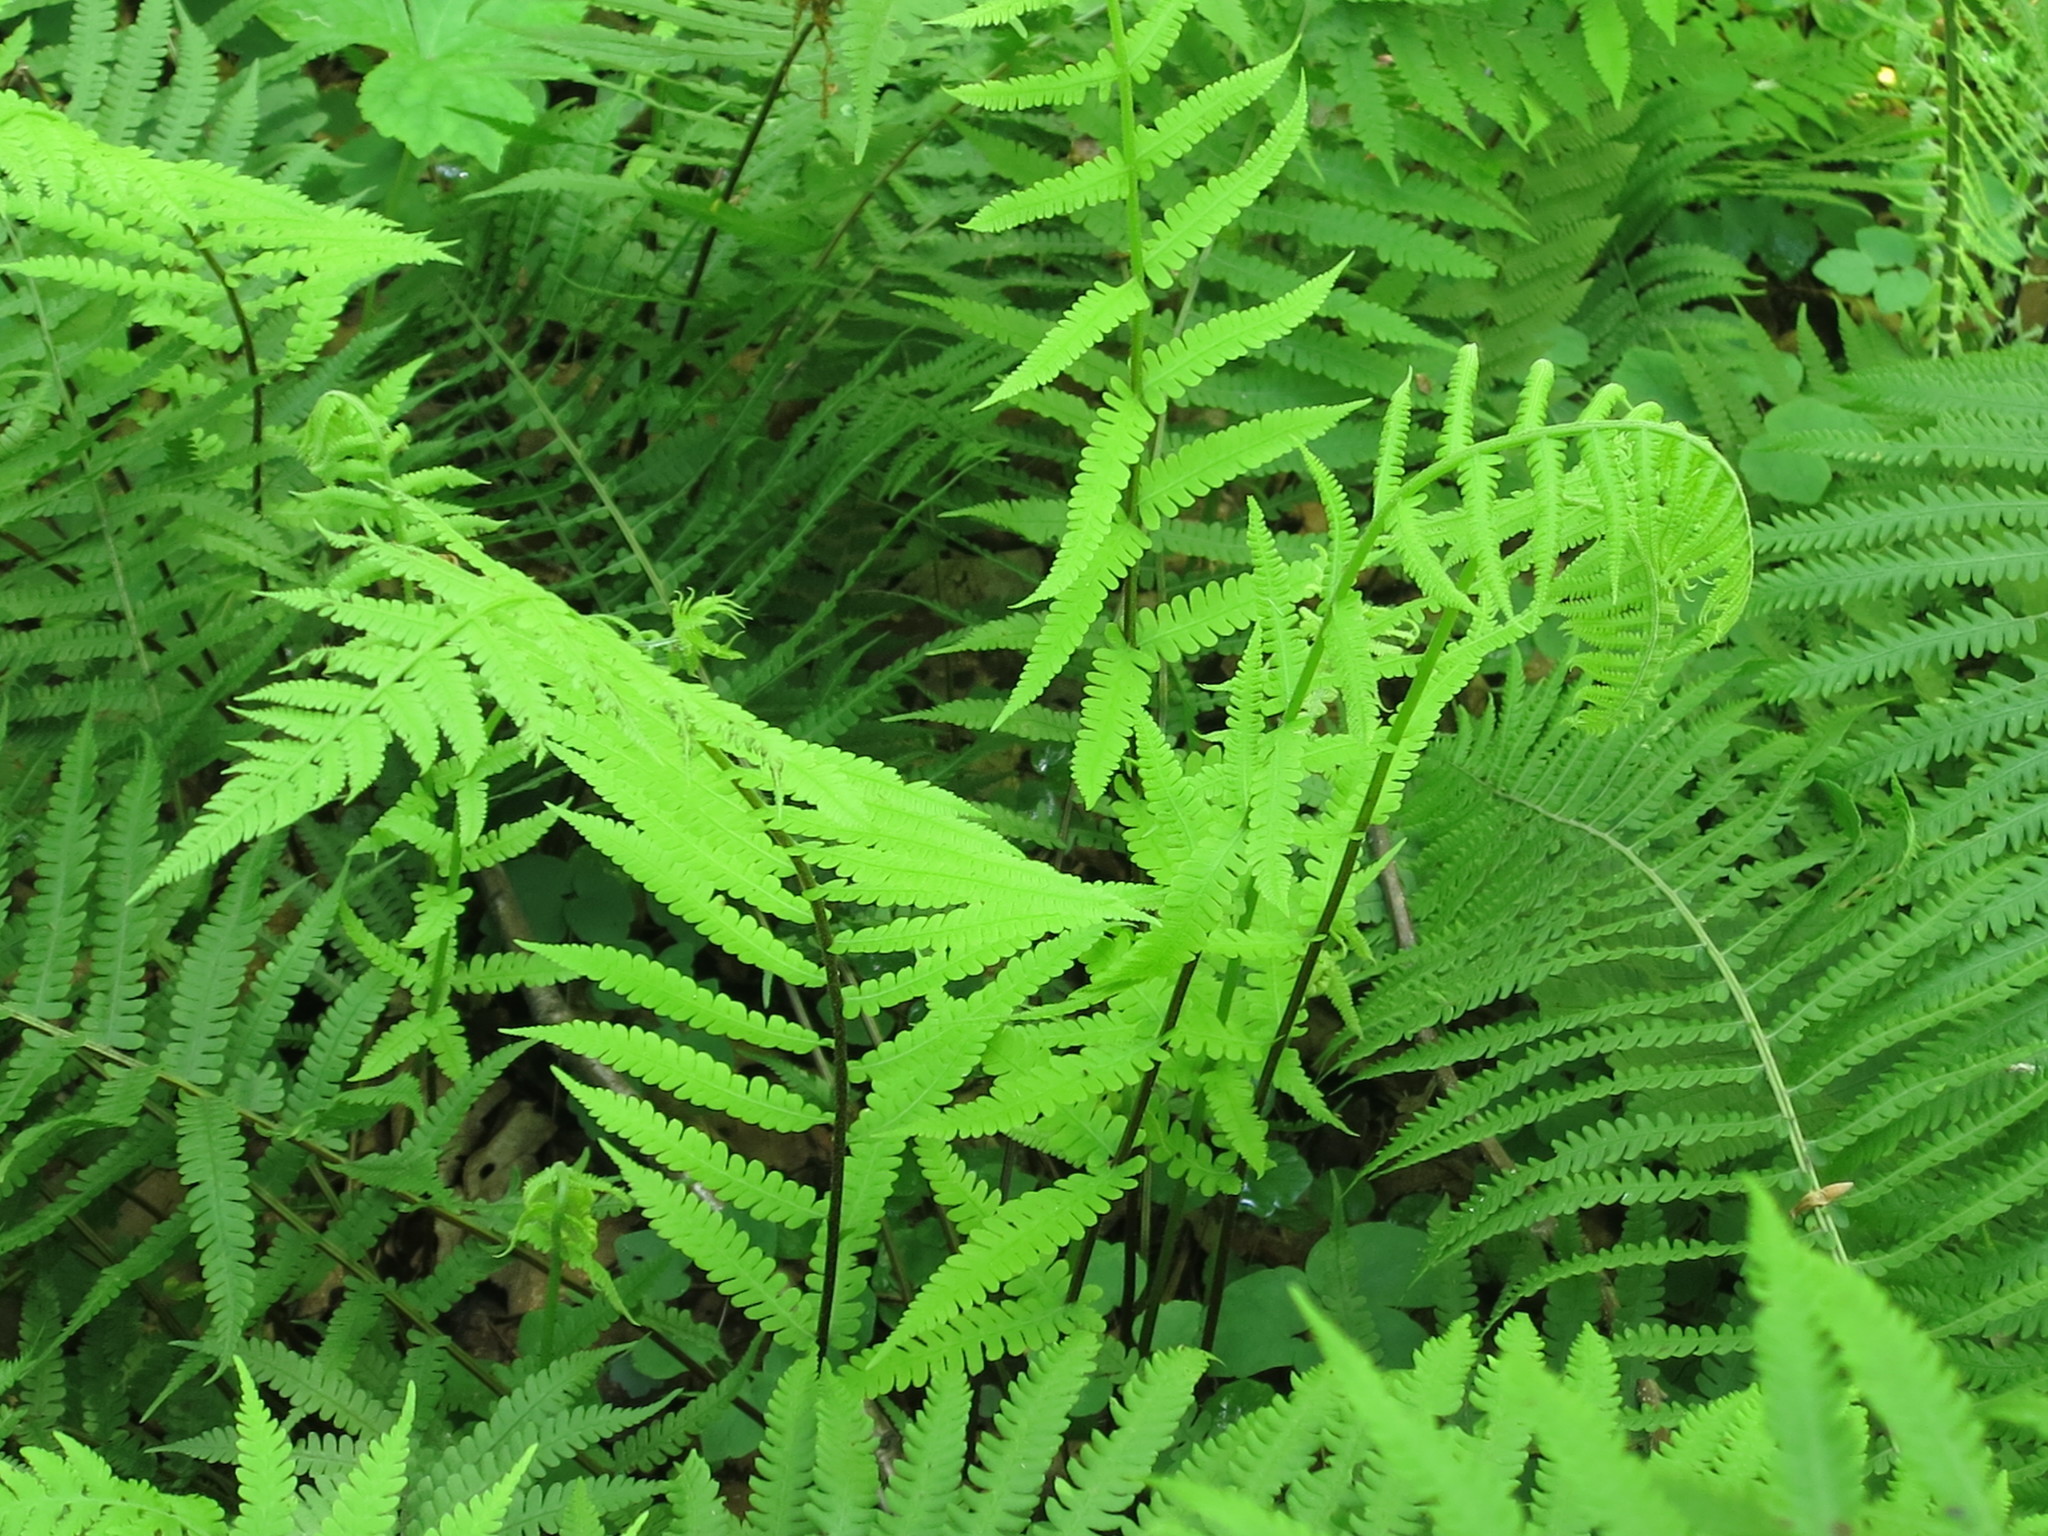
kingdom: Plantae
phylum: Tracheophyta
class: Polypodiopsida
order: Polypodiales
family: Athyriaceae
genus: Deparia
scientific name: Deparia pycnosora
